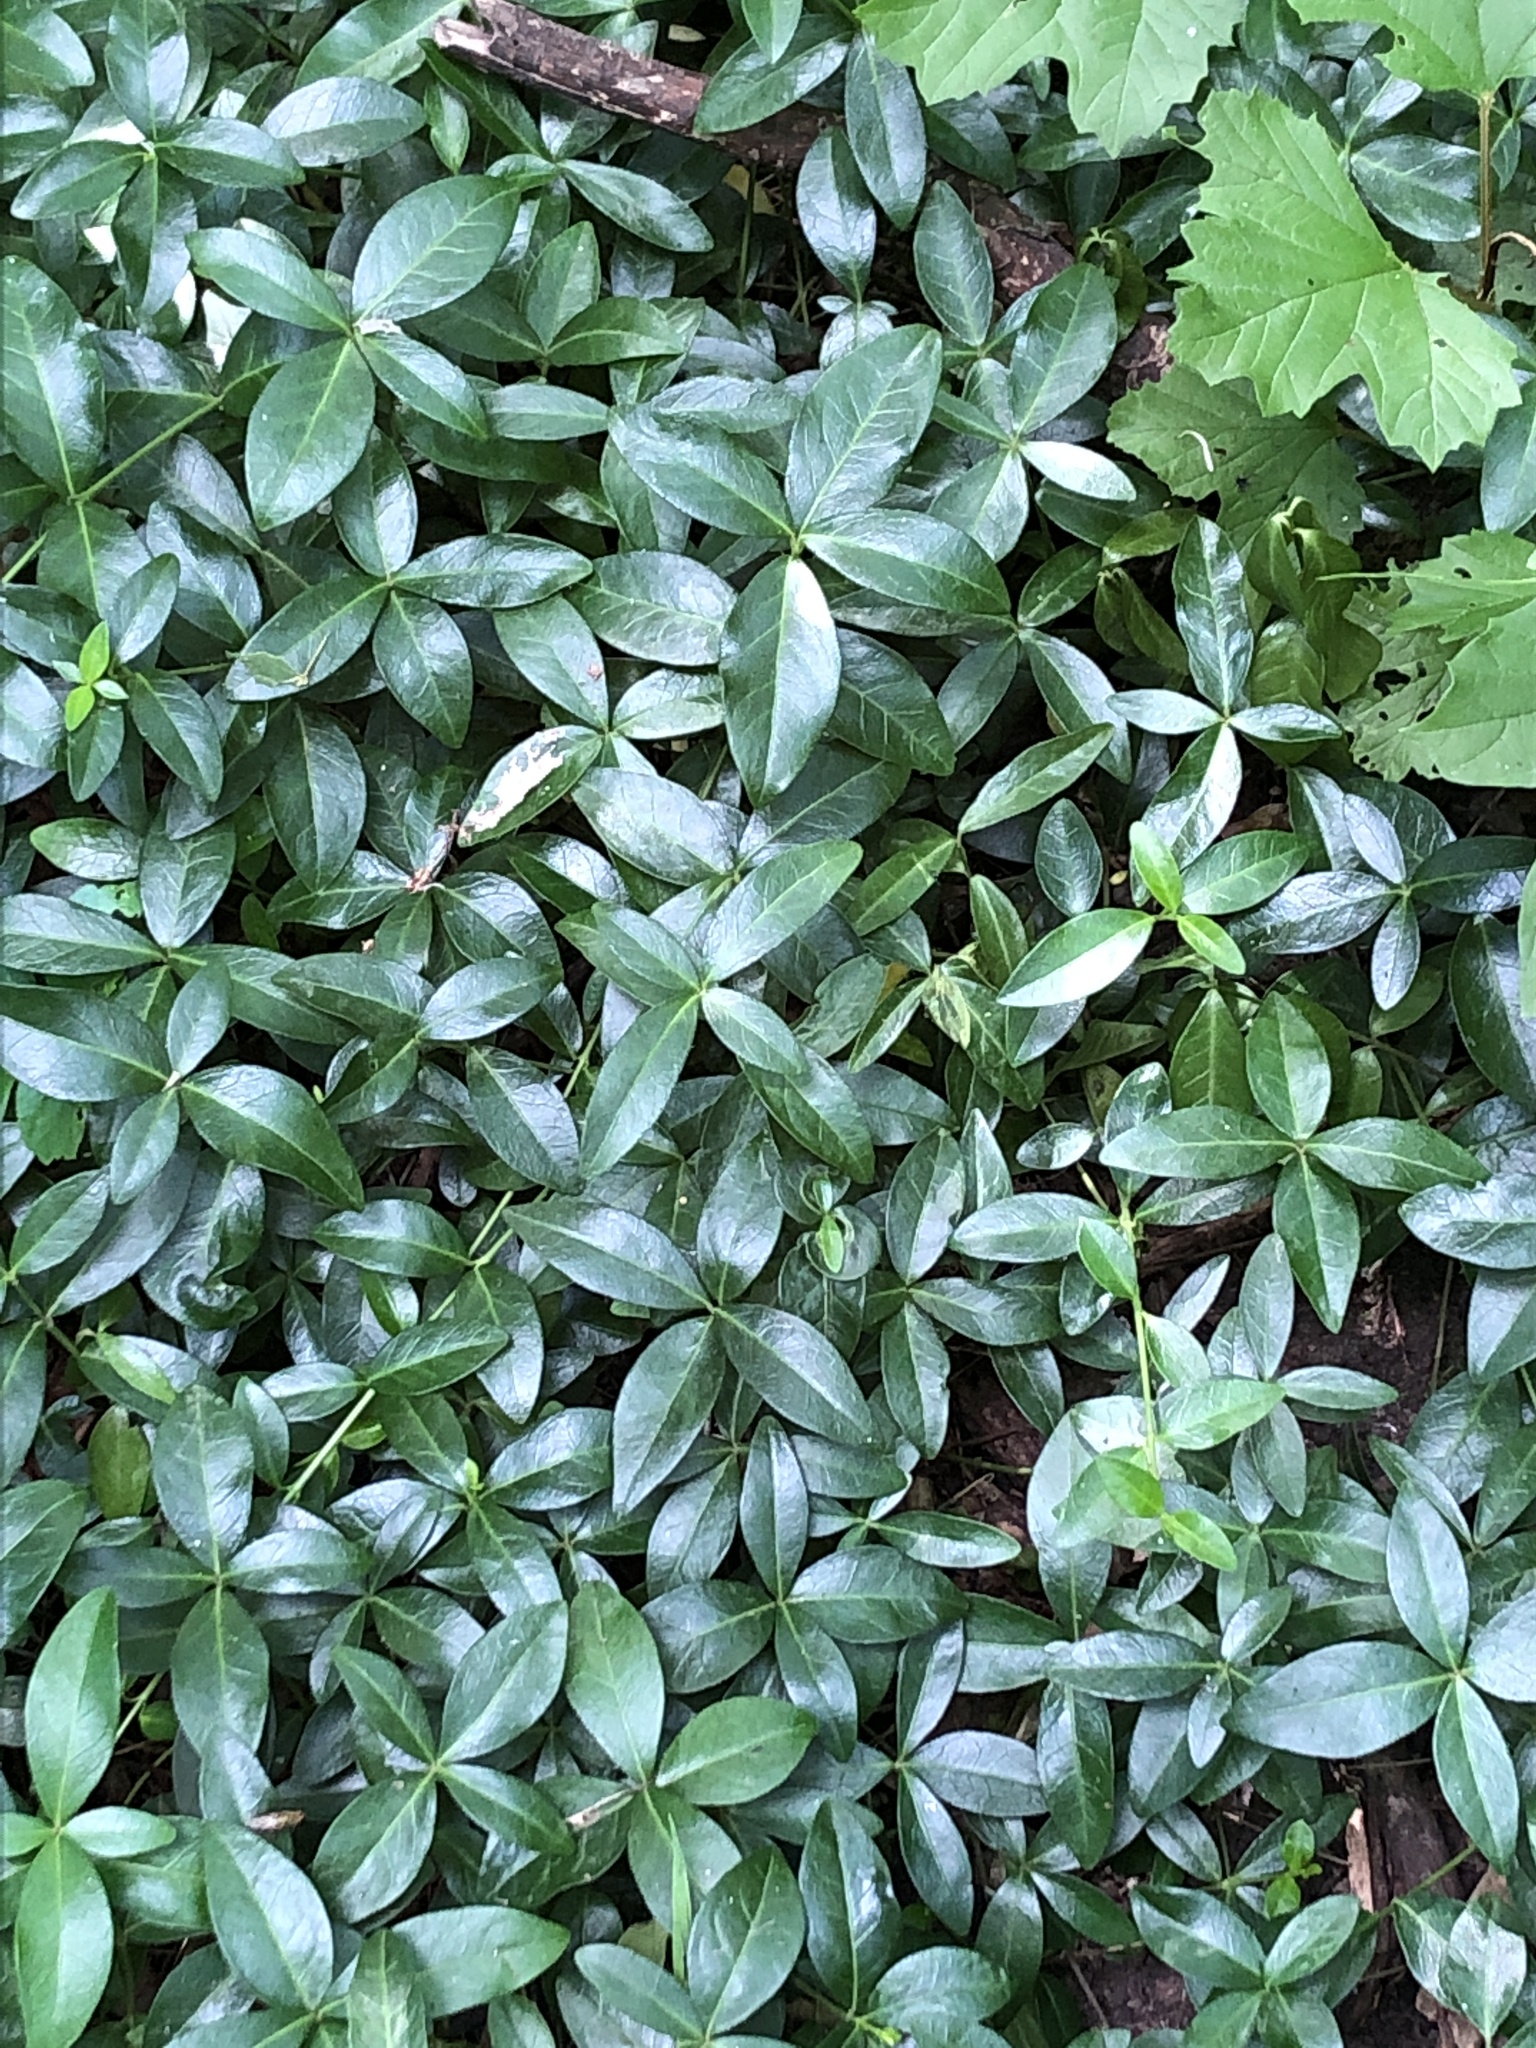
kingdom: Plantae
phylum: Tracheophyta
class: Magnoliopsida
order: Gentianales
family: Apocynaceae
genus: Vinca
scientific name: Vinca minor
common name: Lesser periwinkle
